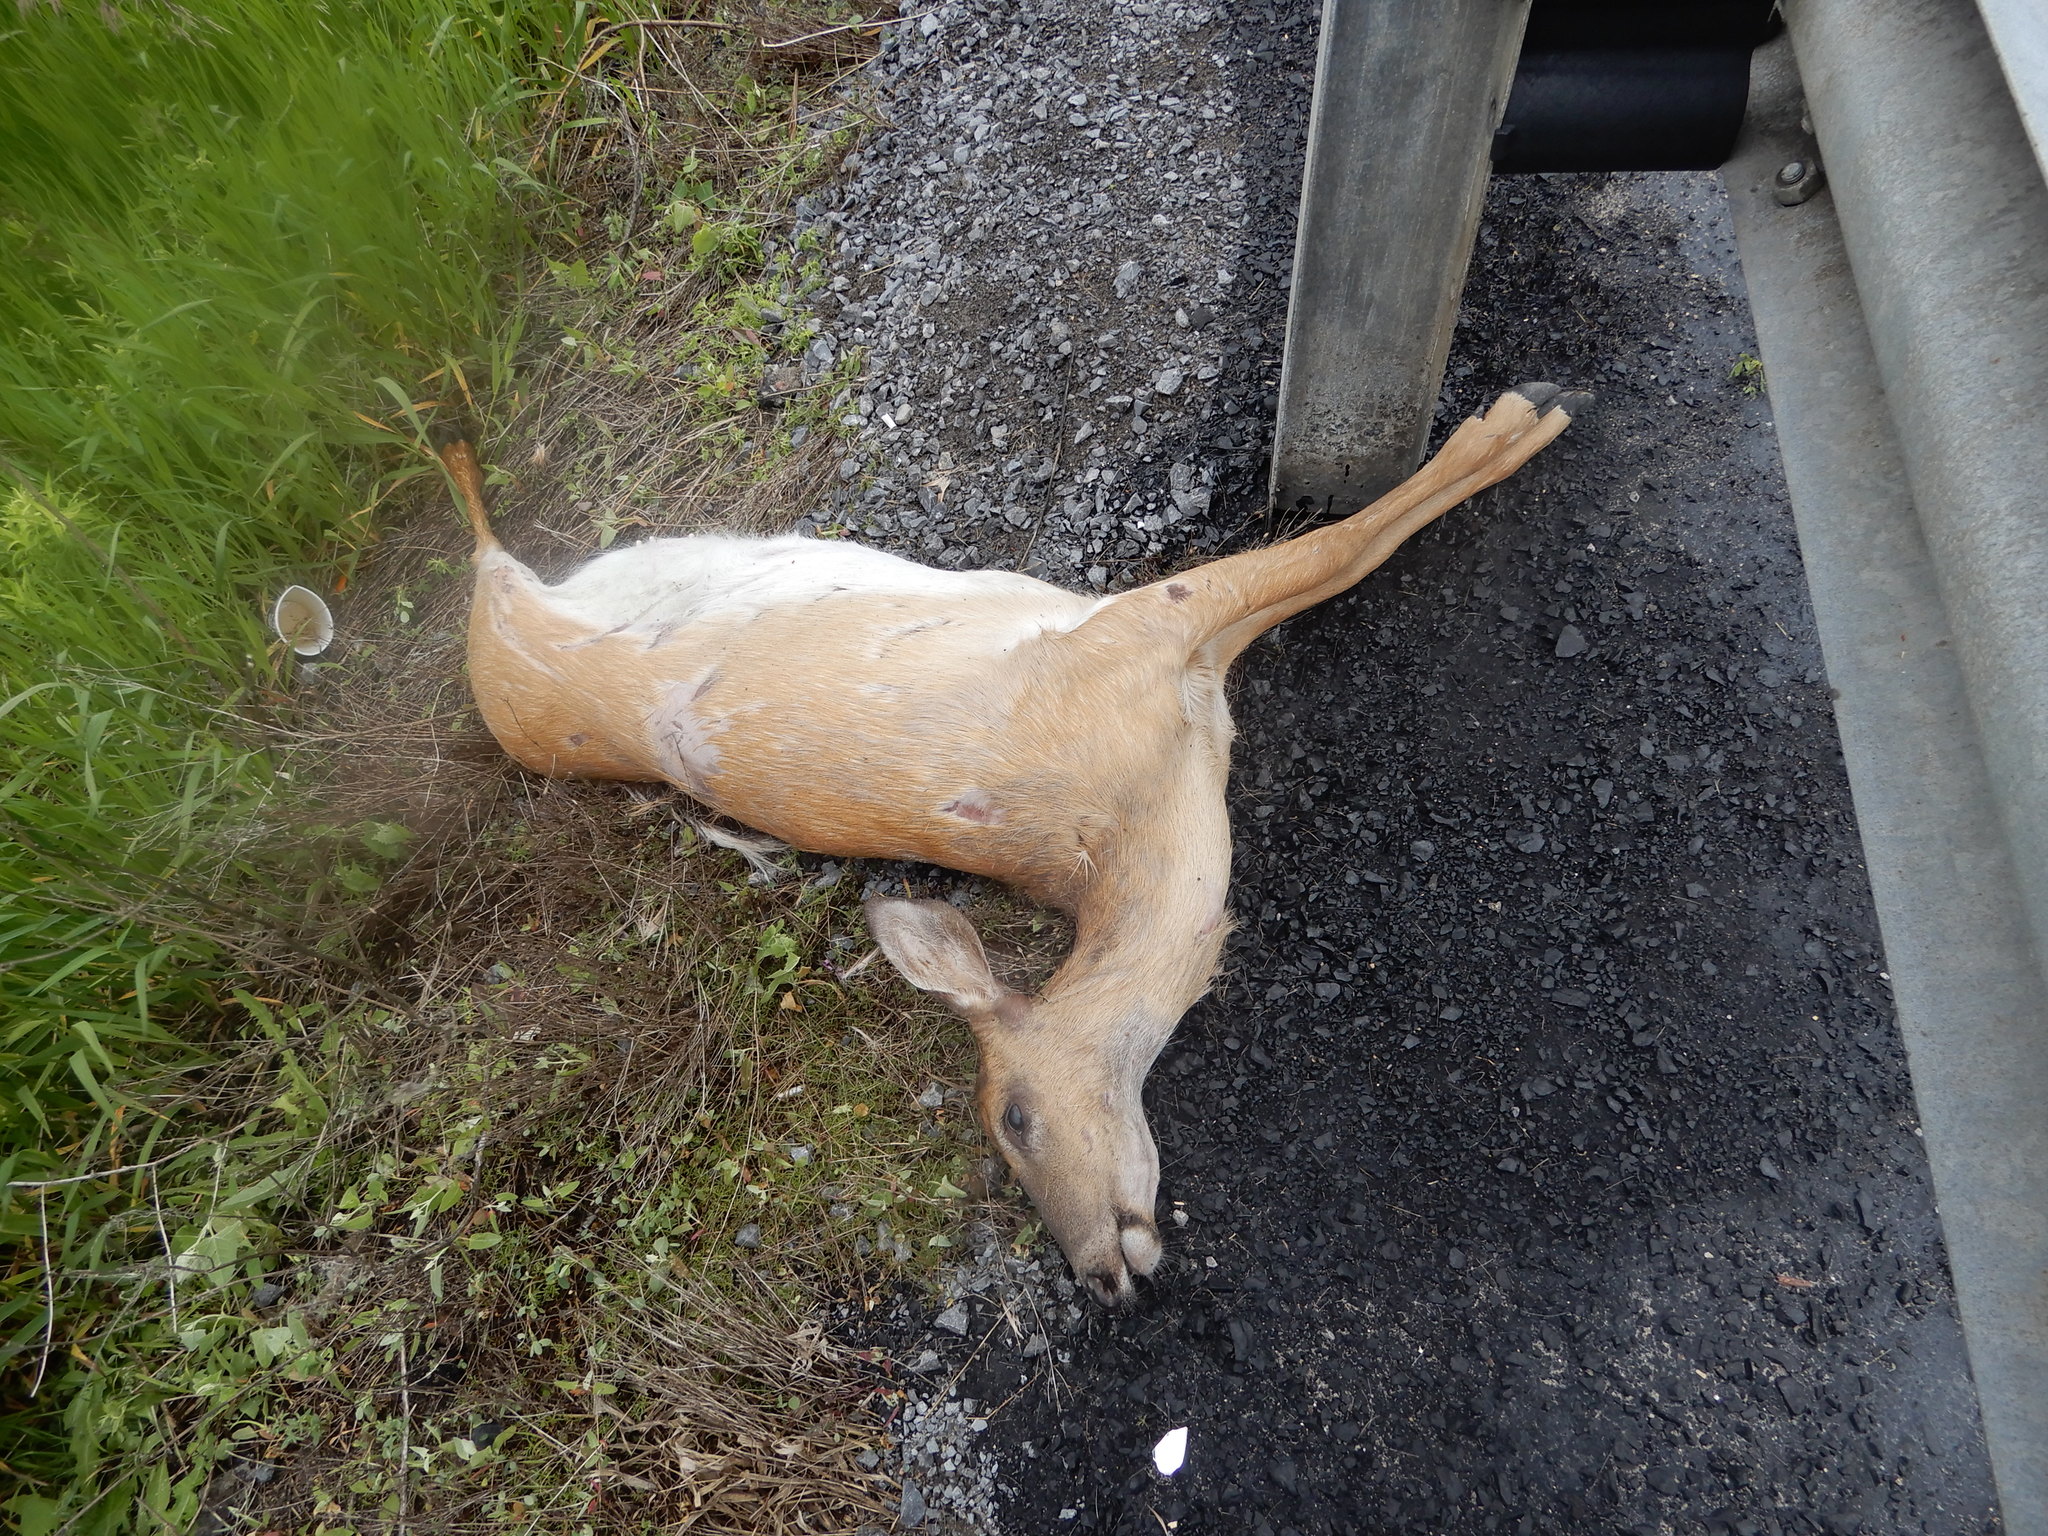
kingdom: Animalia
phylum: Chordata
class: Mammalia
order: Artiodactyla
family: Cervidae
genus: Odocoileus
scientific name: Odocoileus virginianus
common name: White-tailed deer
